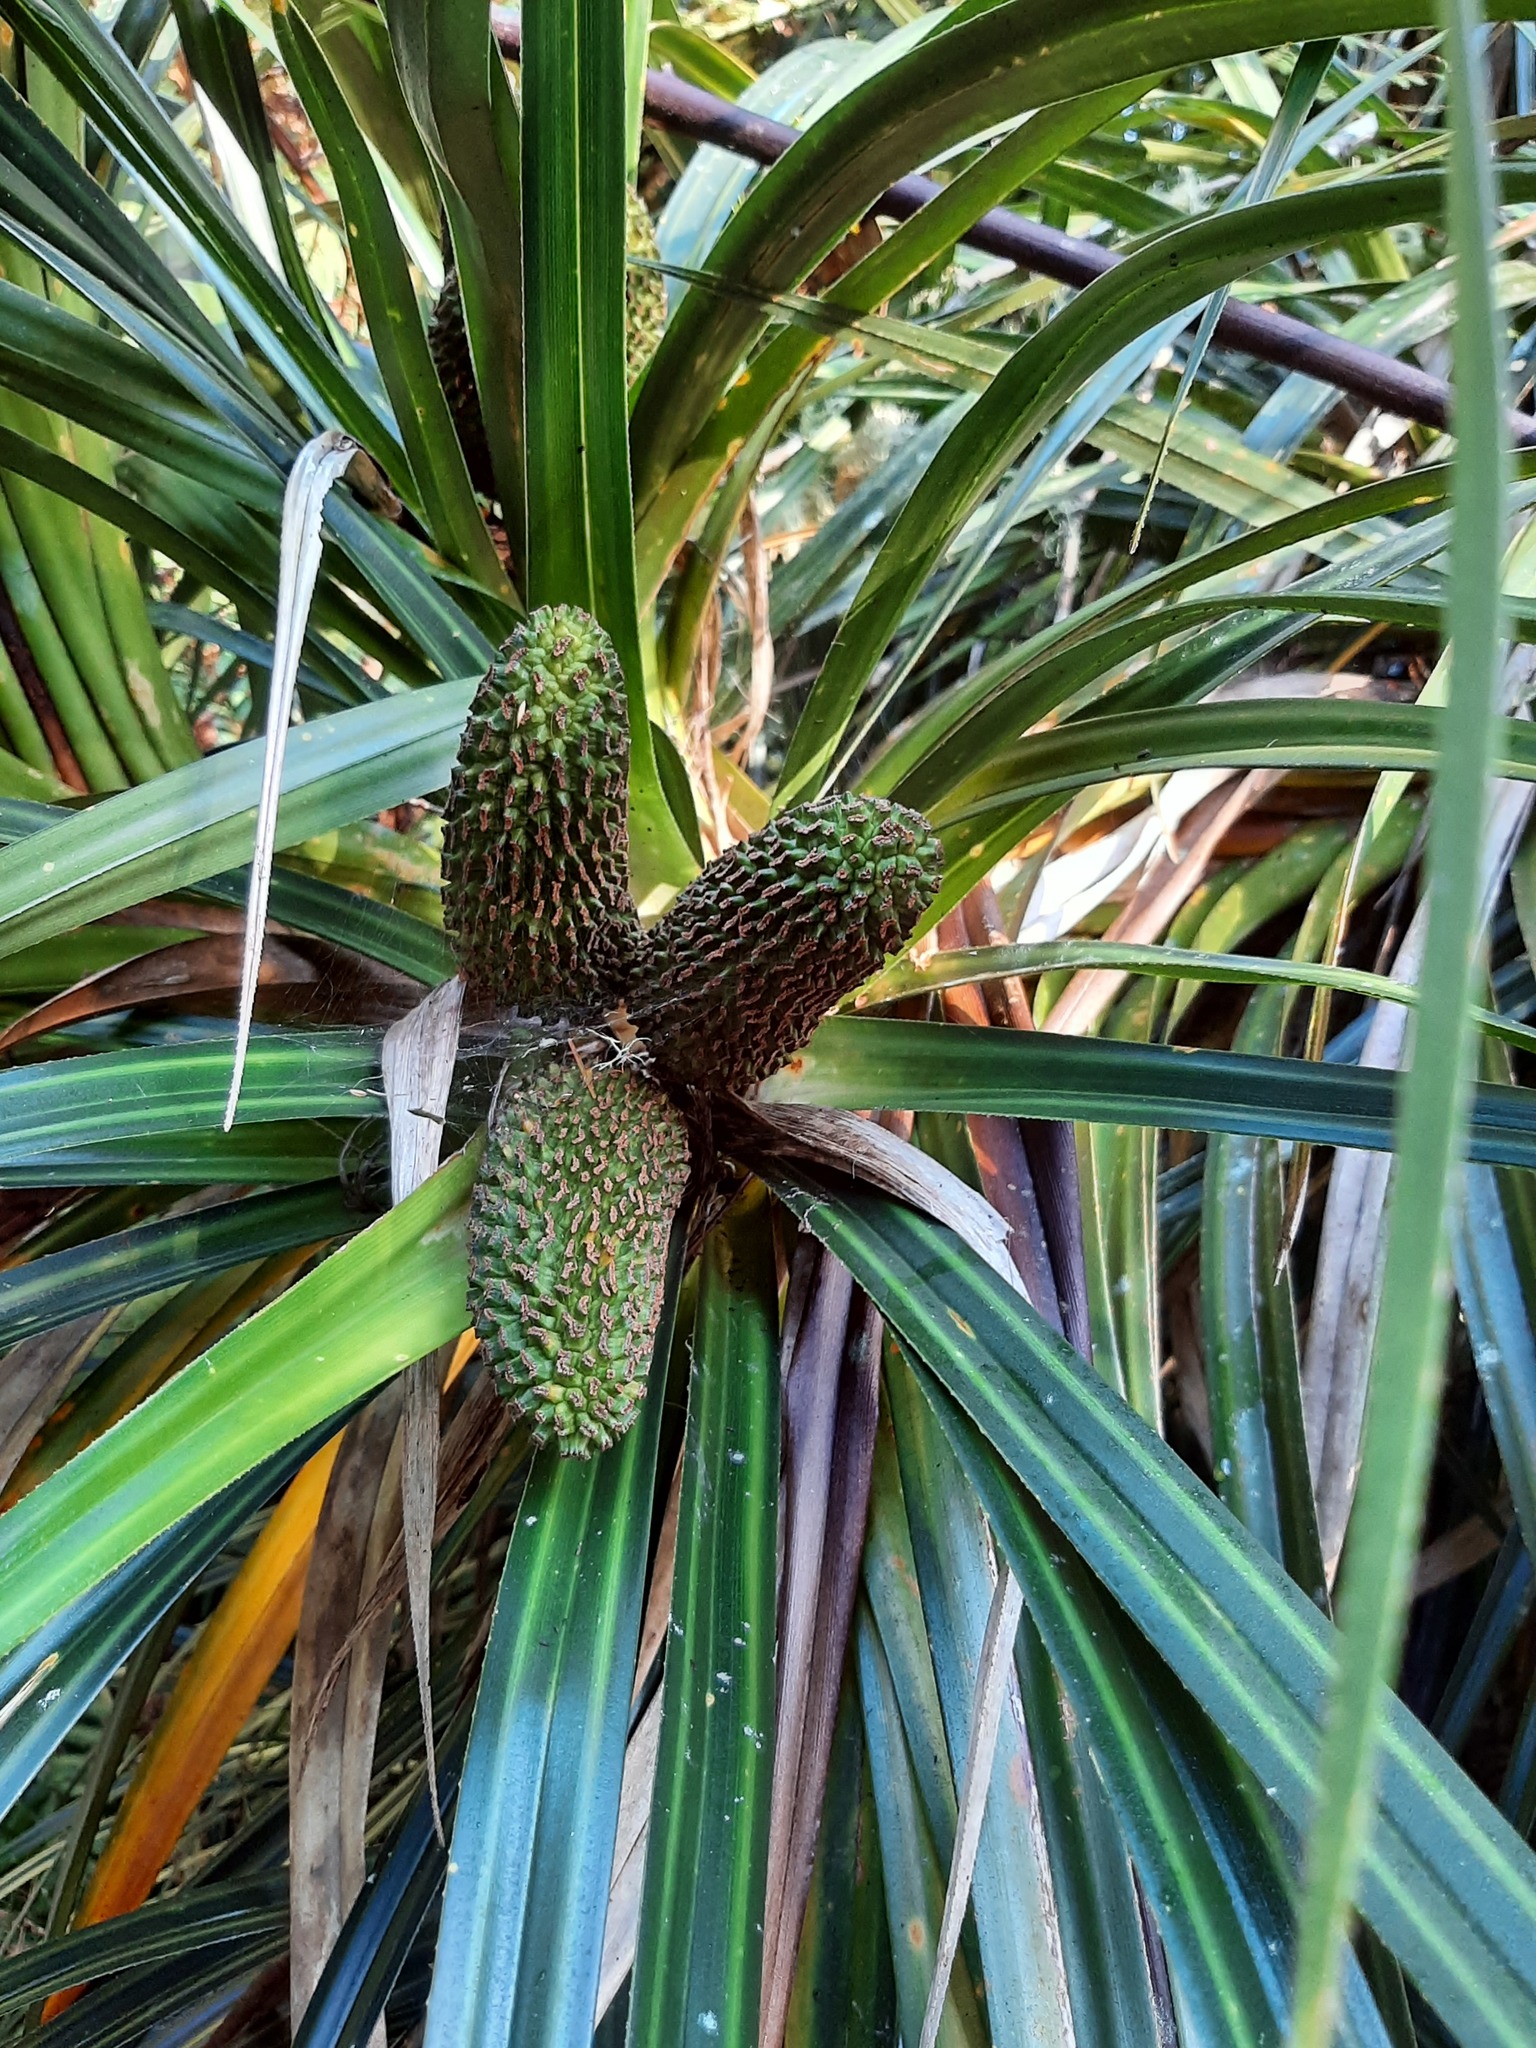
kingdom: Plantae
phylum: Tracheophyta
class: Liliopsida
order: Pandanales
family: Pandanaceae
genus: Freycinetia
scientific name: Freycinetia banksii
